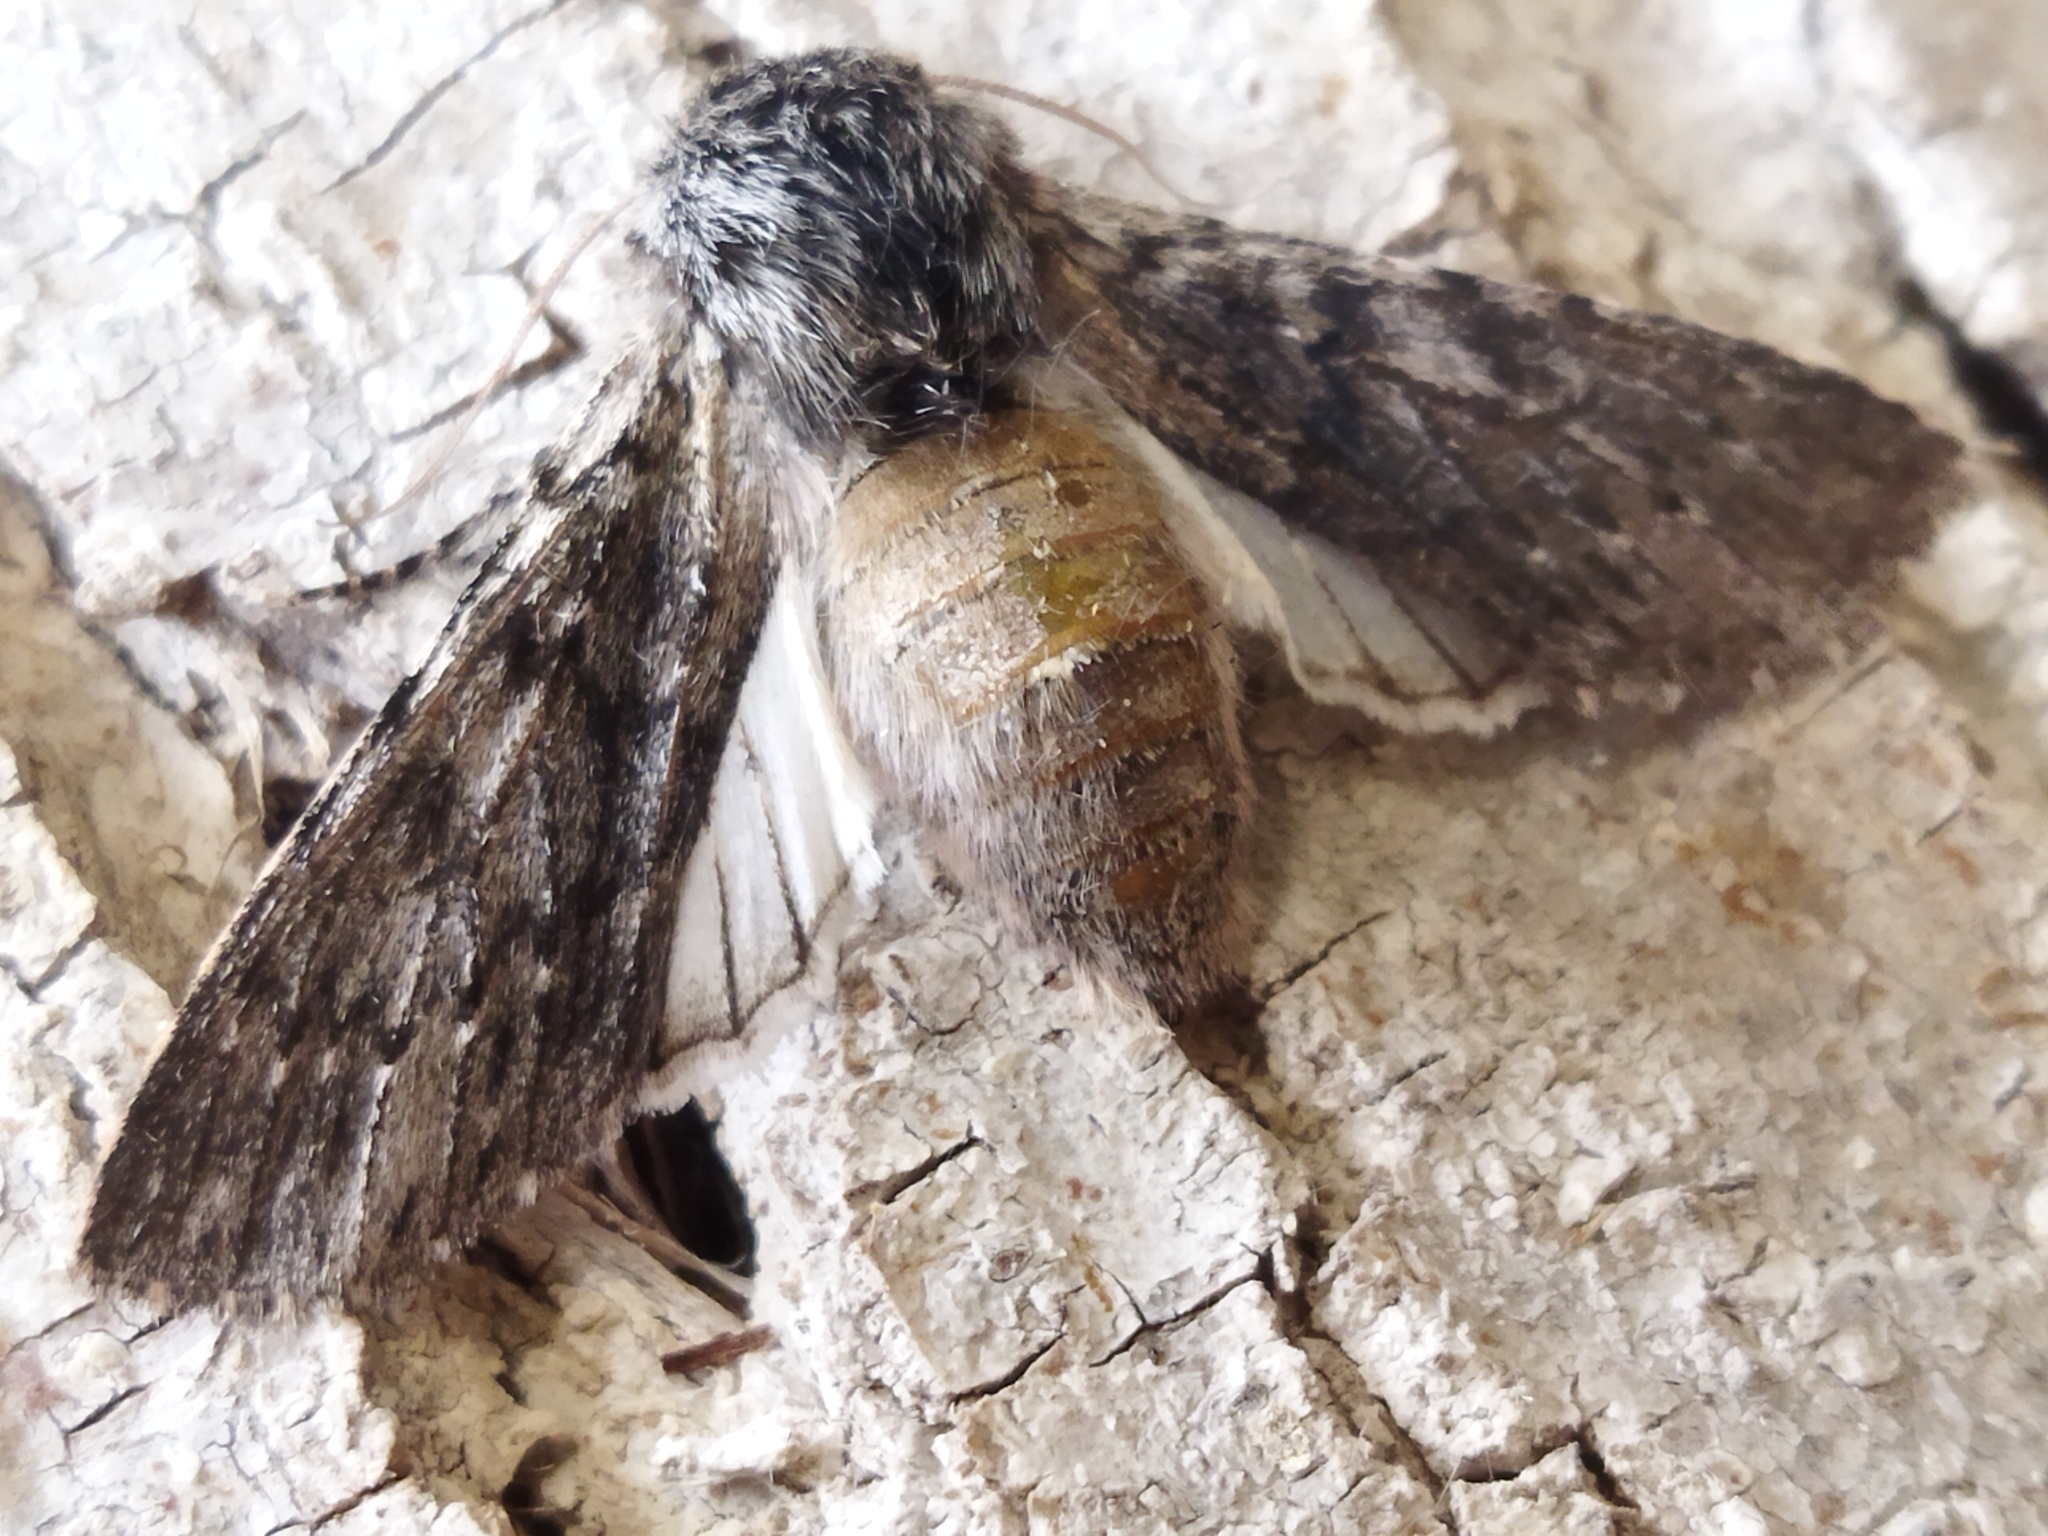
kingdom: Animalia
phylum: Arthropoda
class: Insecta
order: Lepidoptera
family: Notodontidae
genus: Dicranura
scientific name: Dicranura ulmi
